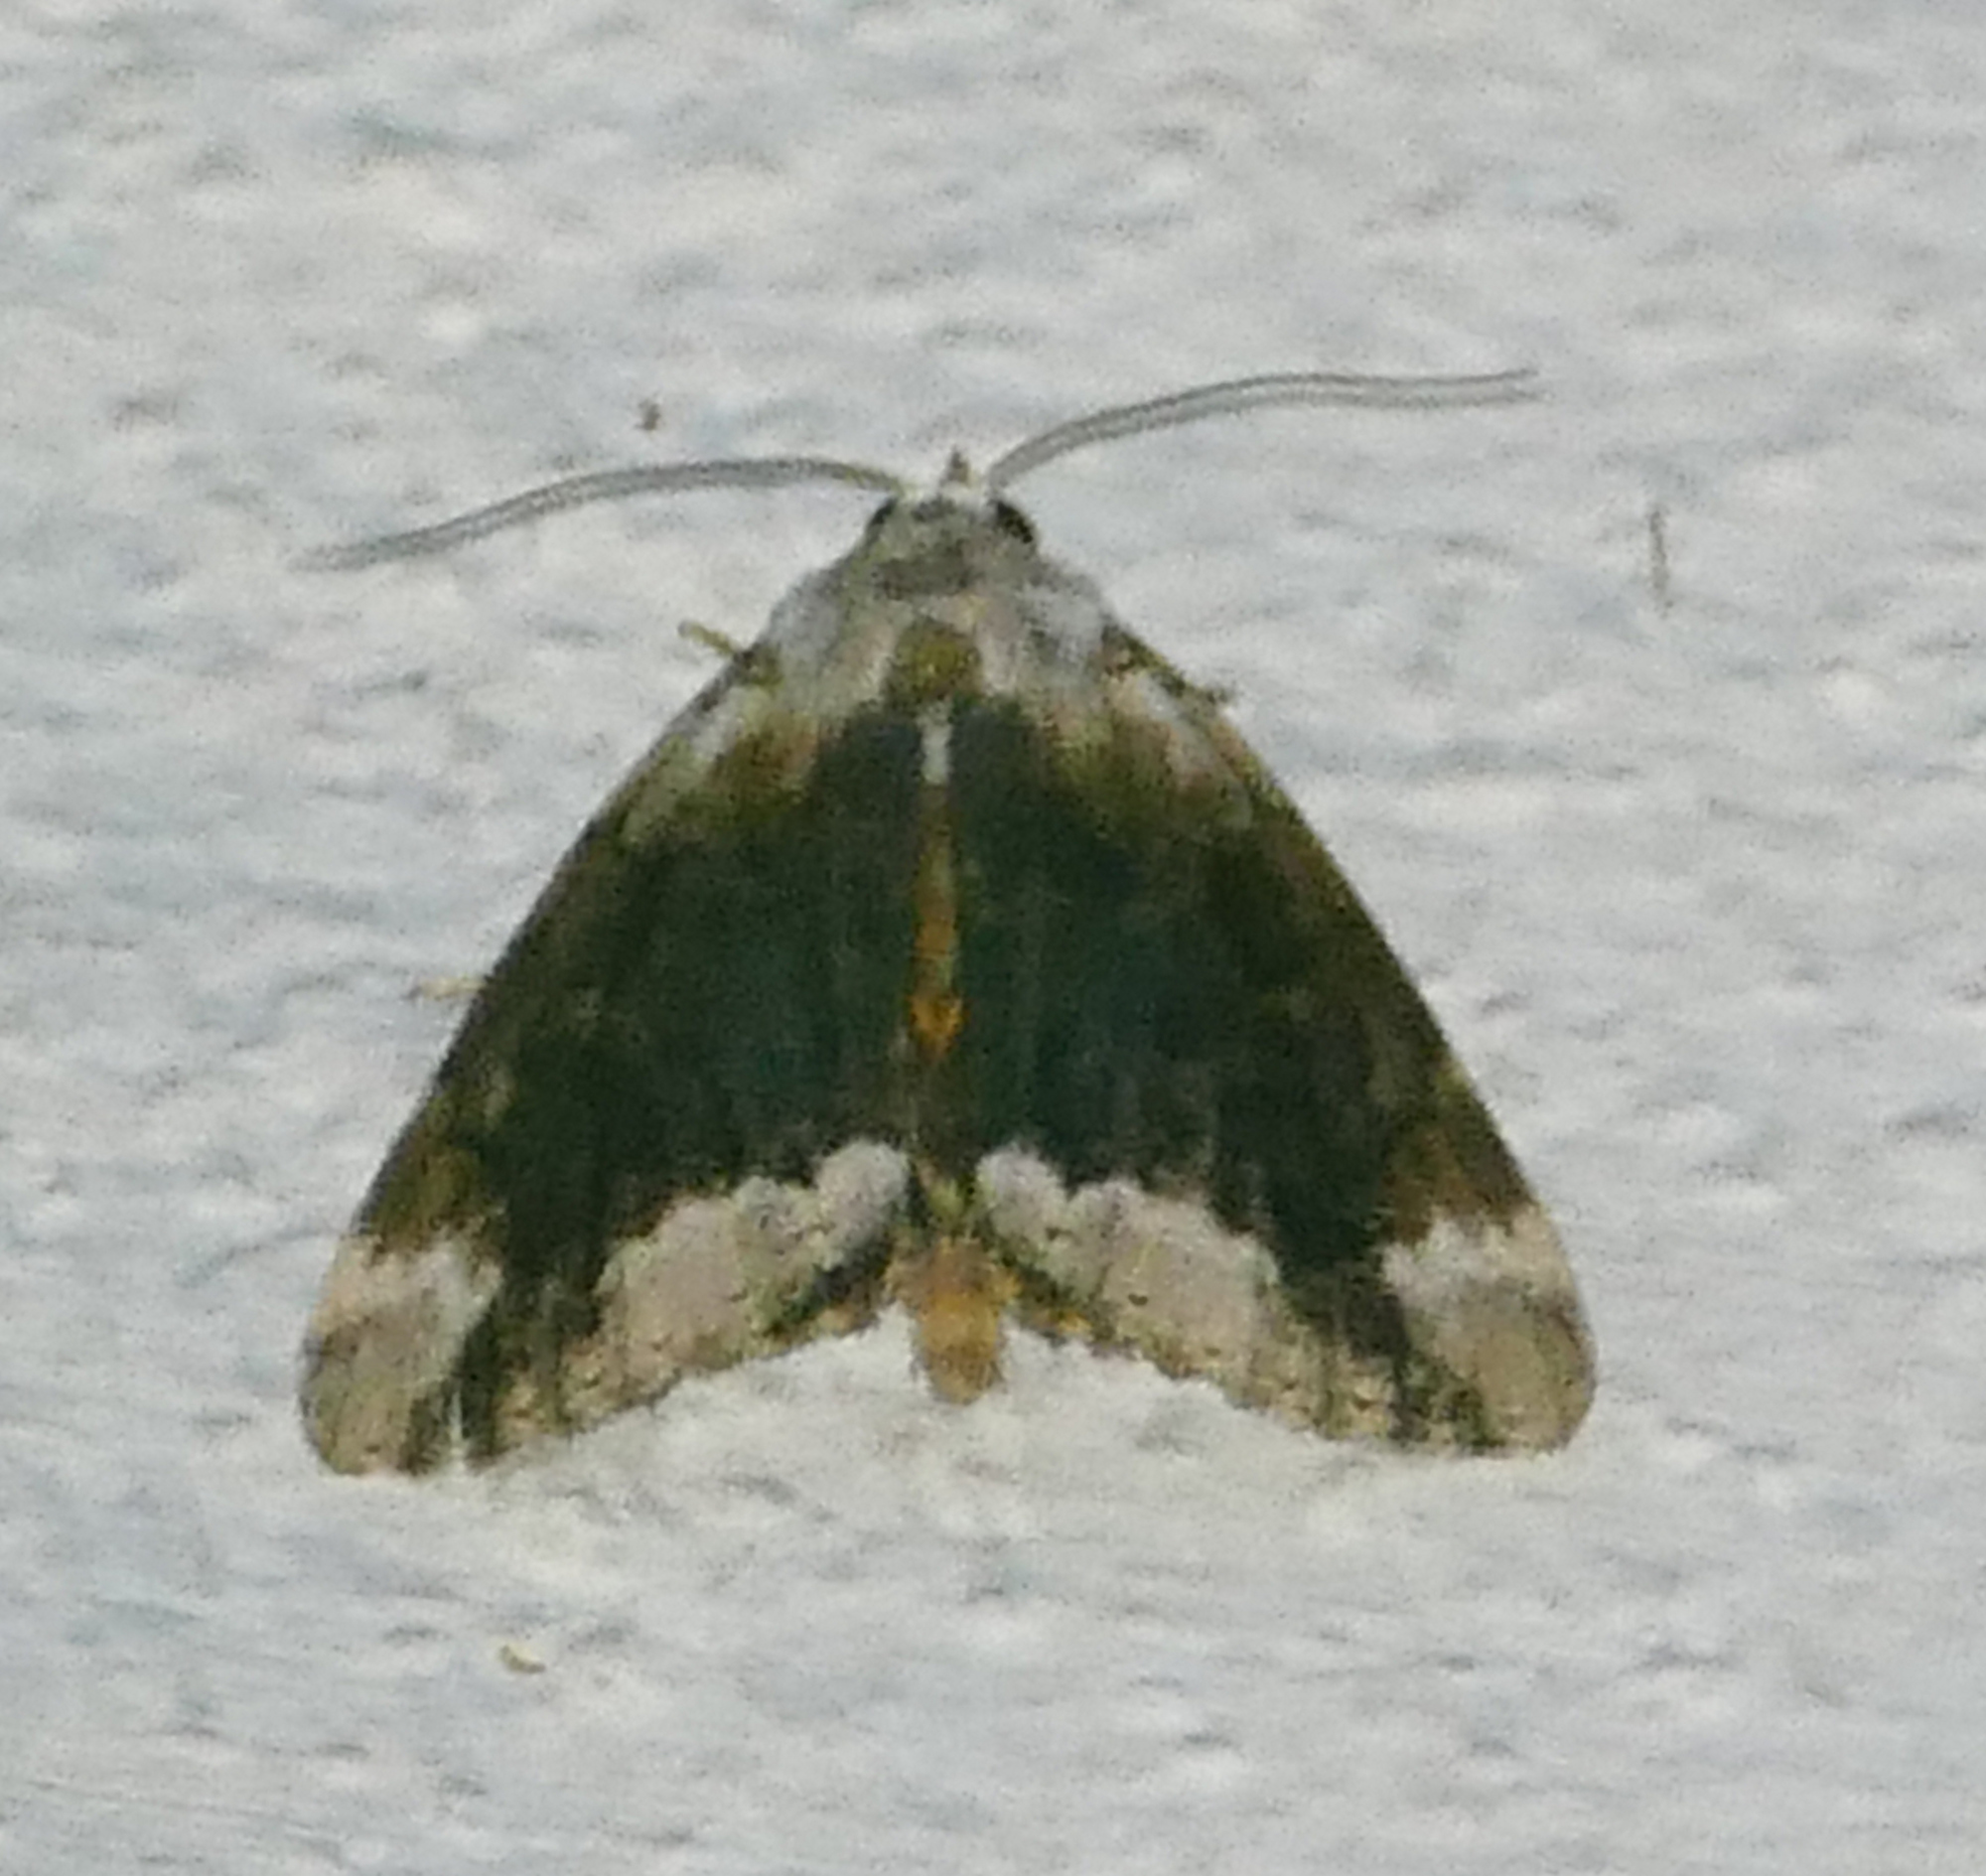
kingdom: Animalia
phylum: Arthropoda
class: Insecta
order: Lepidoptera
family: Erebidae
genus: Catocala
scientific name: Catocala micronympha
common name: Little nymph underwing
